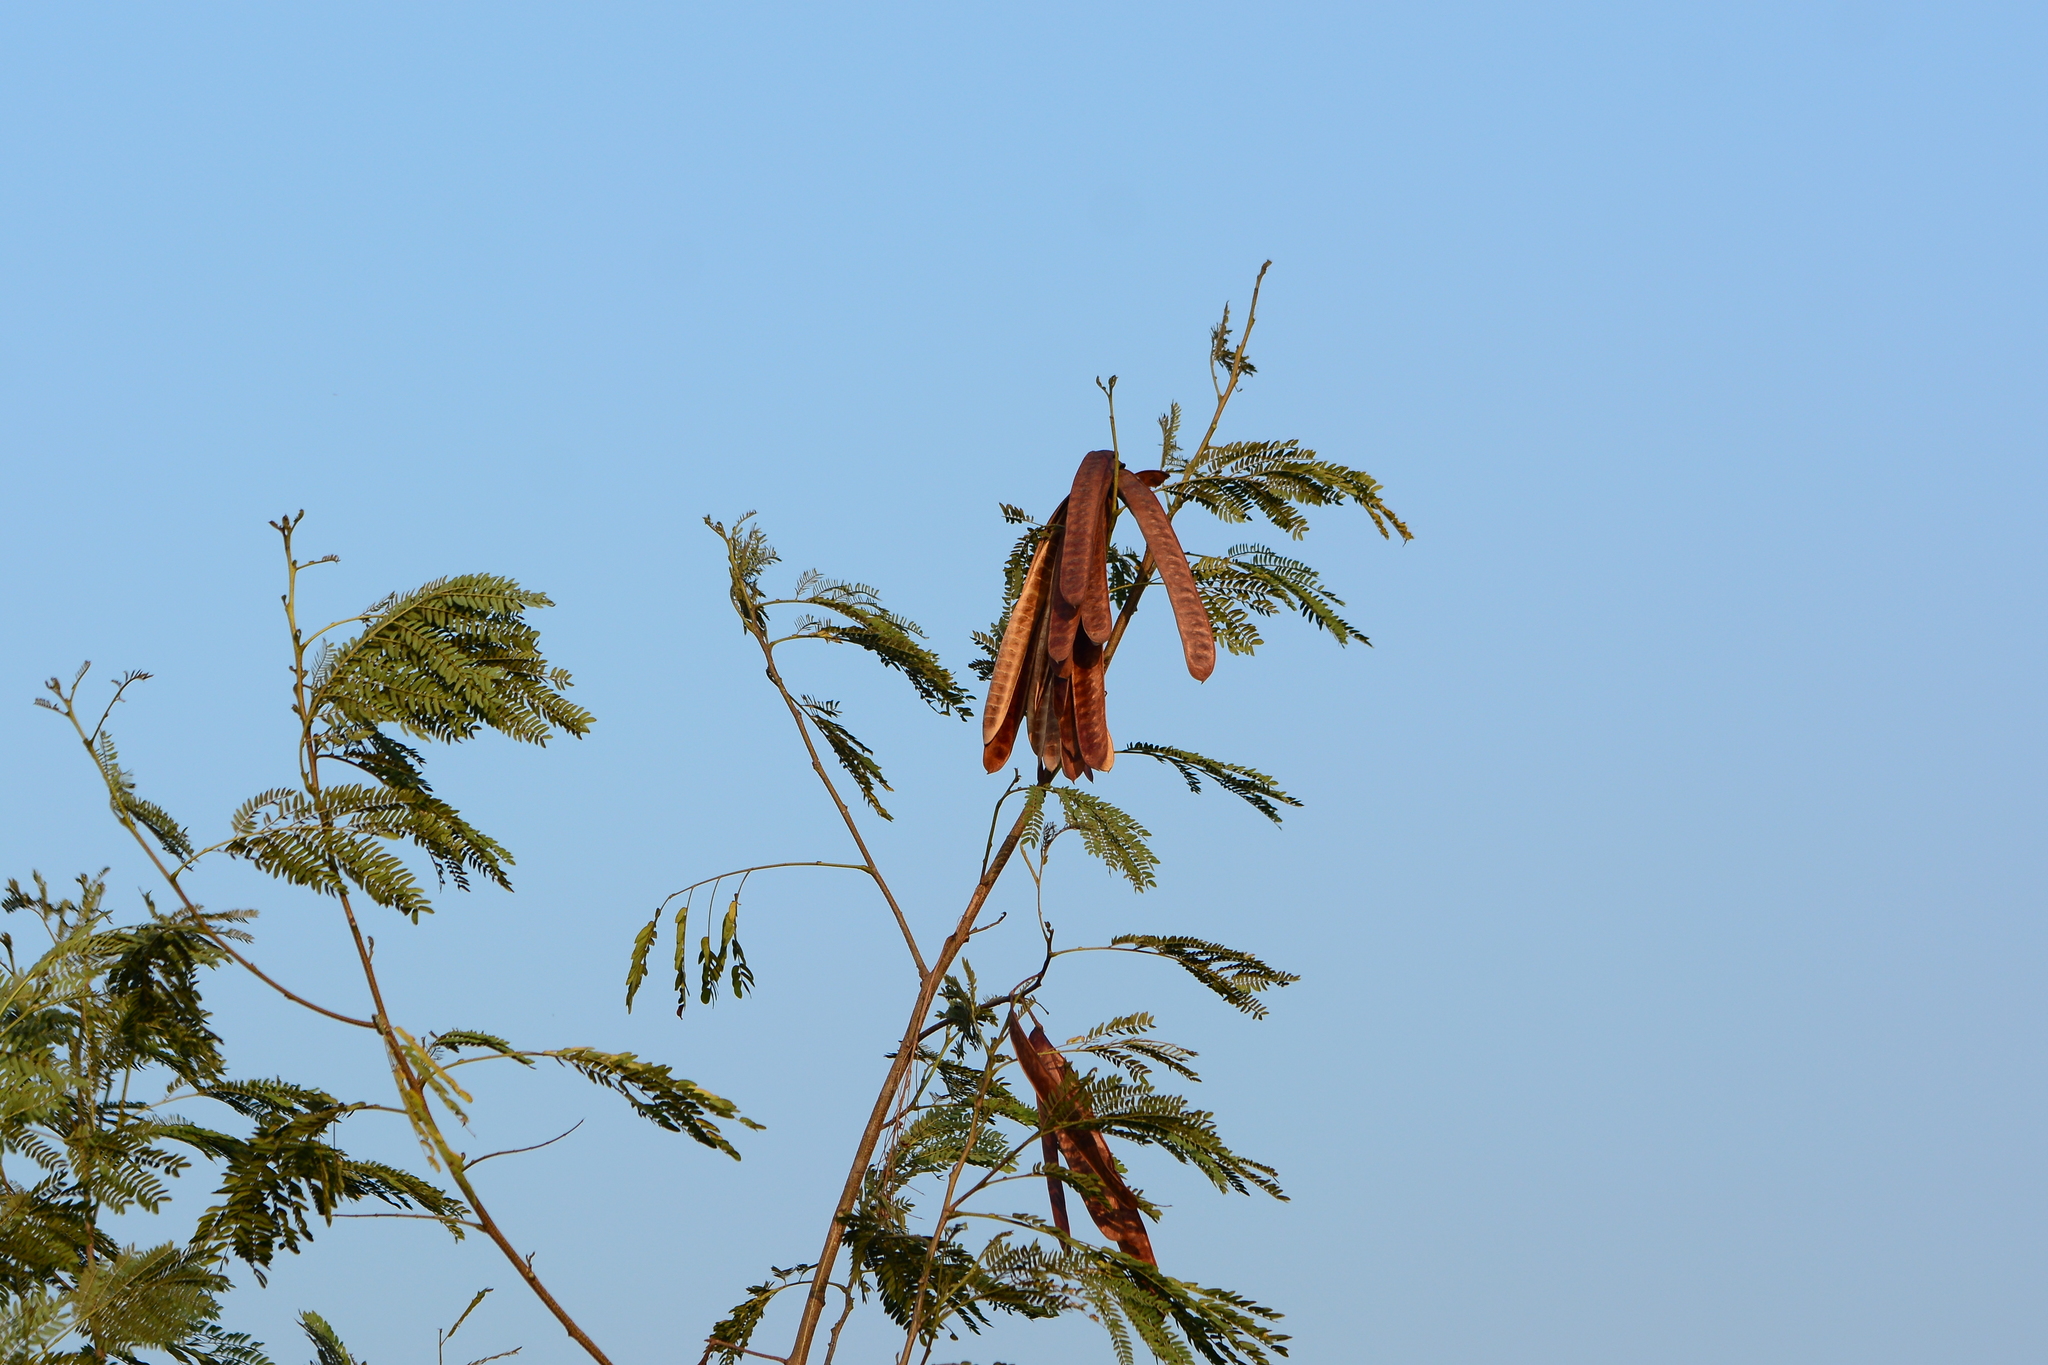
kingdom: Plantae
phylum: Tracheophyta
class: Magnoliopsida
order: Fabales
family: Fabaceae
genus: Leucaena
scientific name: Leucaena leucocephala
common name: White leadtree
